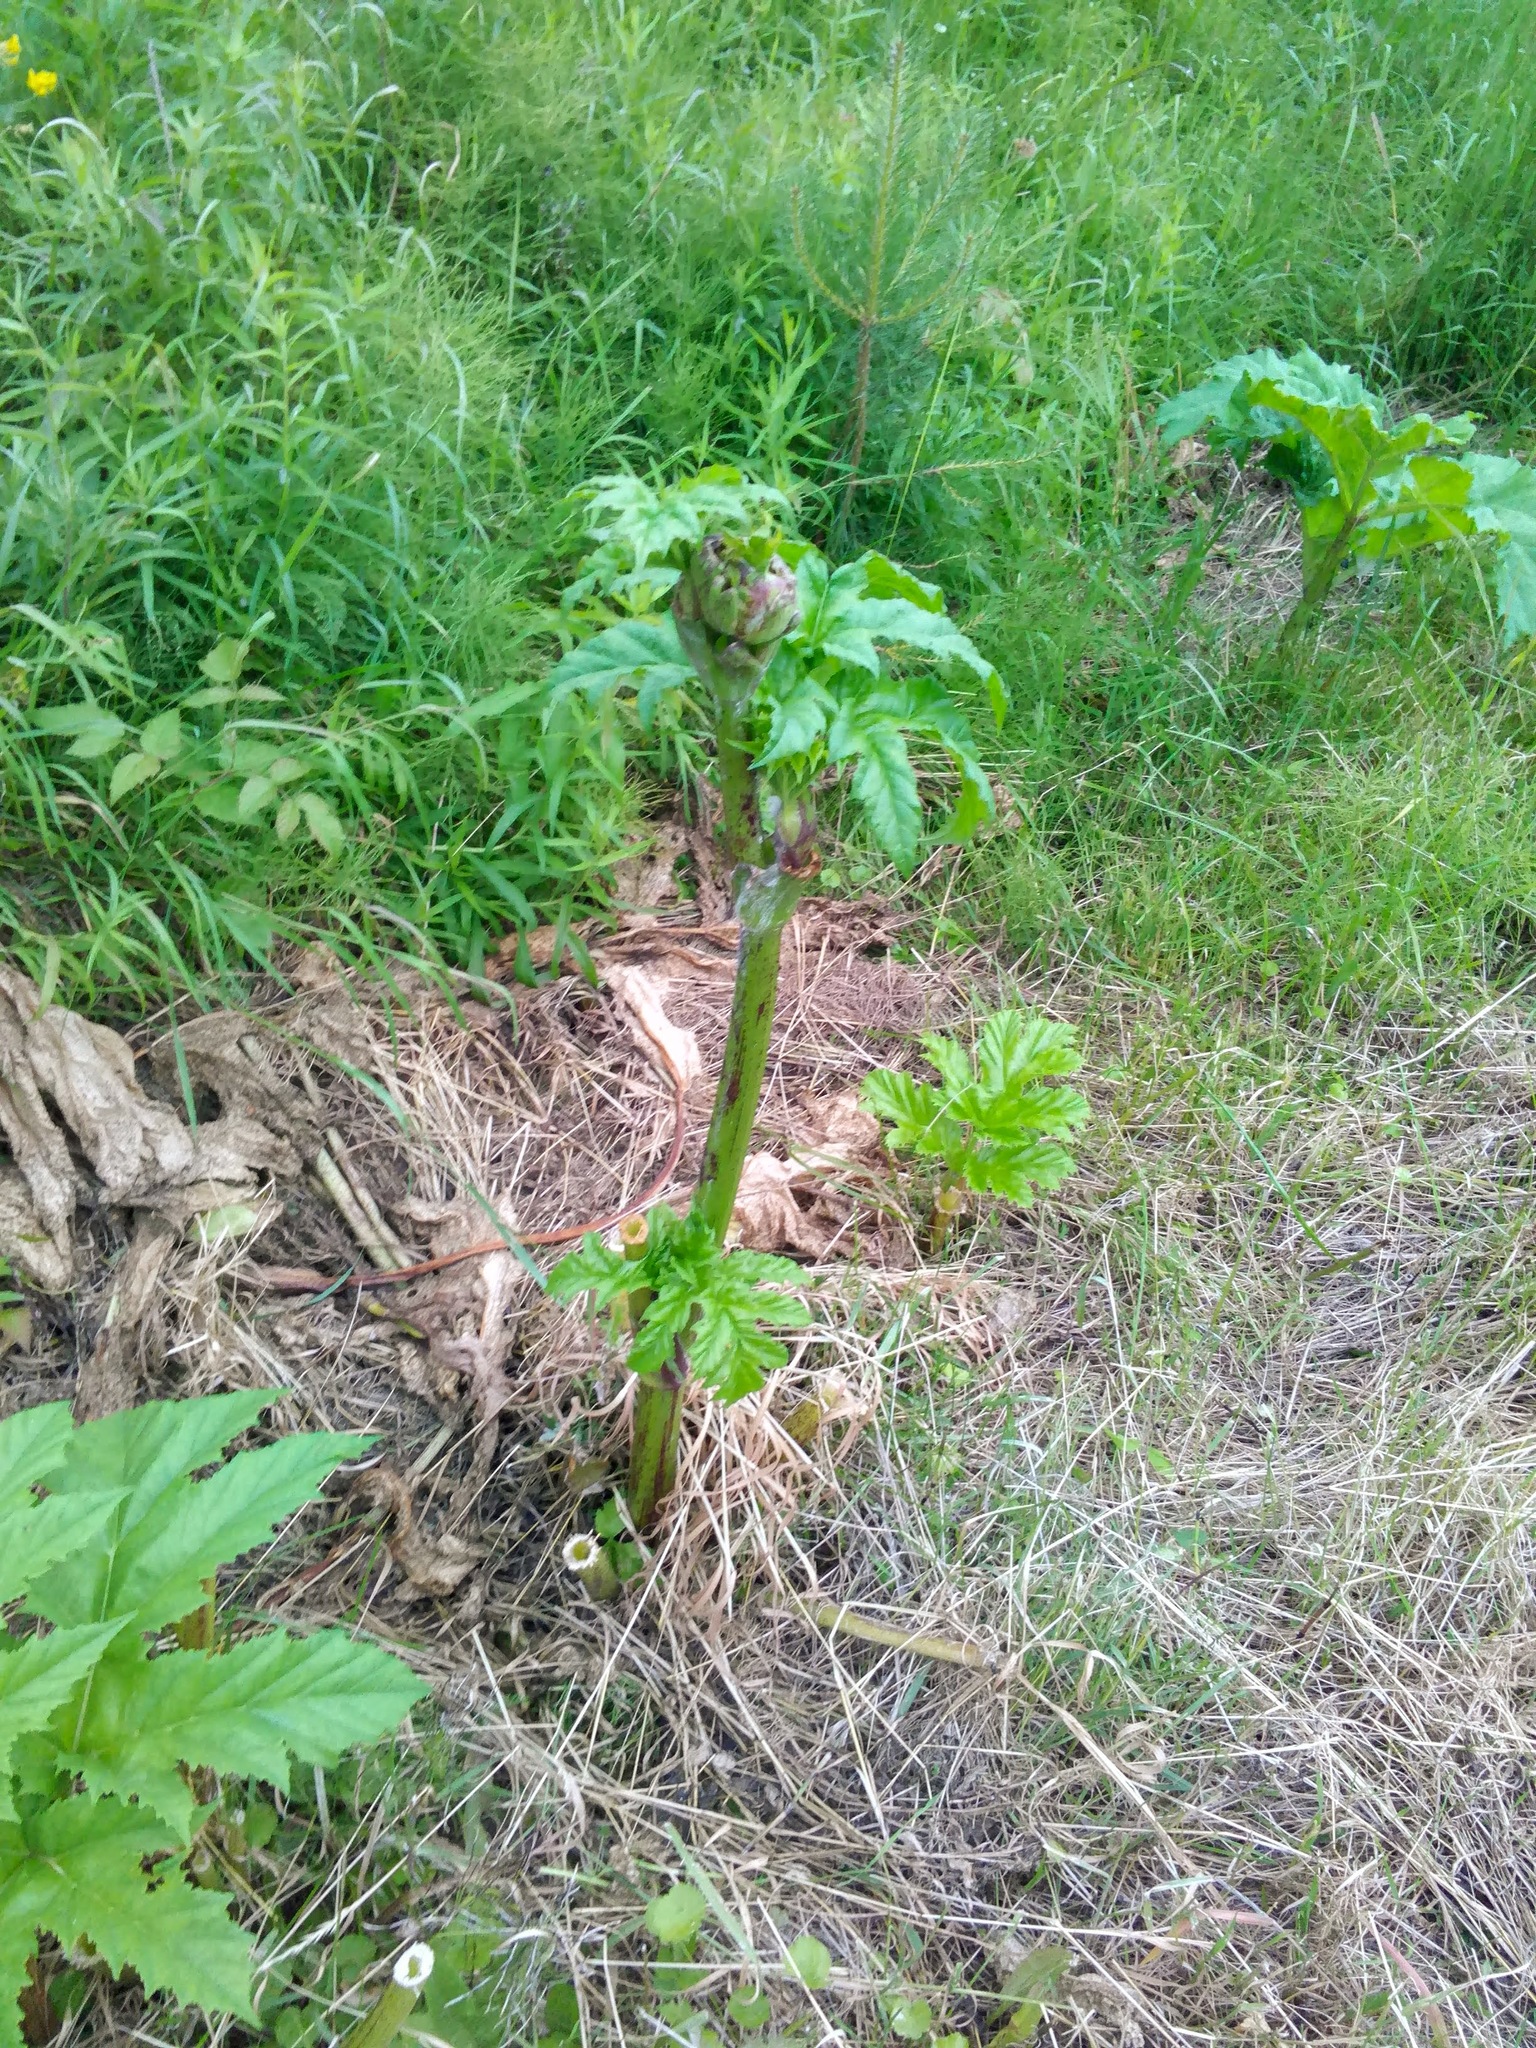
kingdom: Plantae
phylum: Tracheophyta
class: Magnoliopsida
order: Apiales
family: Apiaceae
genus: Heracleum
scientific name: Heracleum sosnowskyi
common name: Sosnowsky's hogweed
